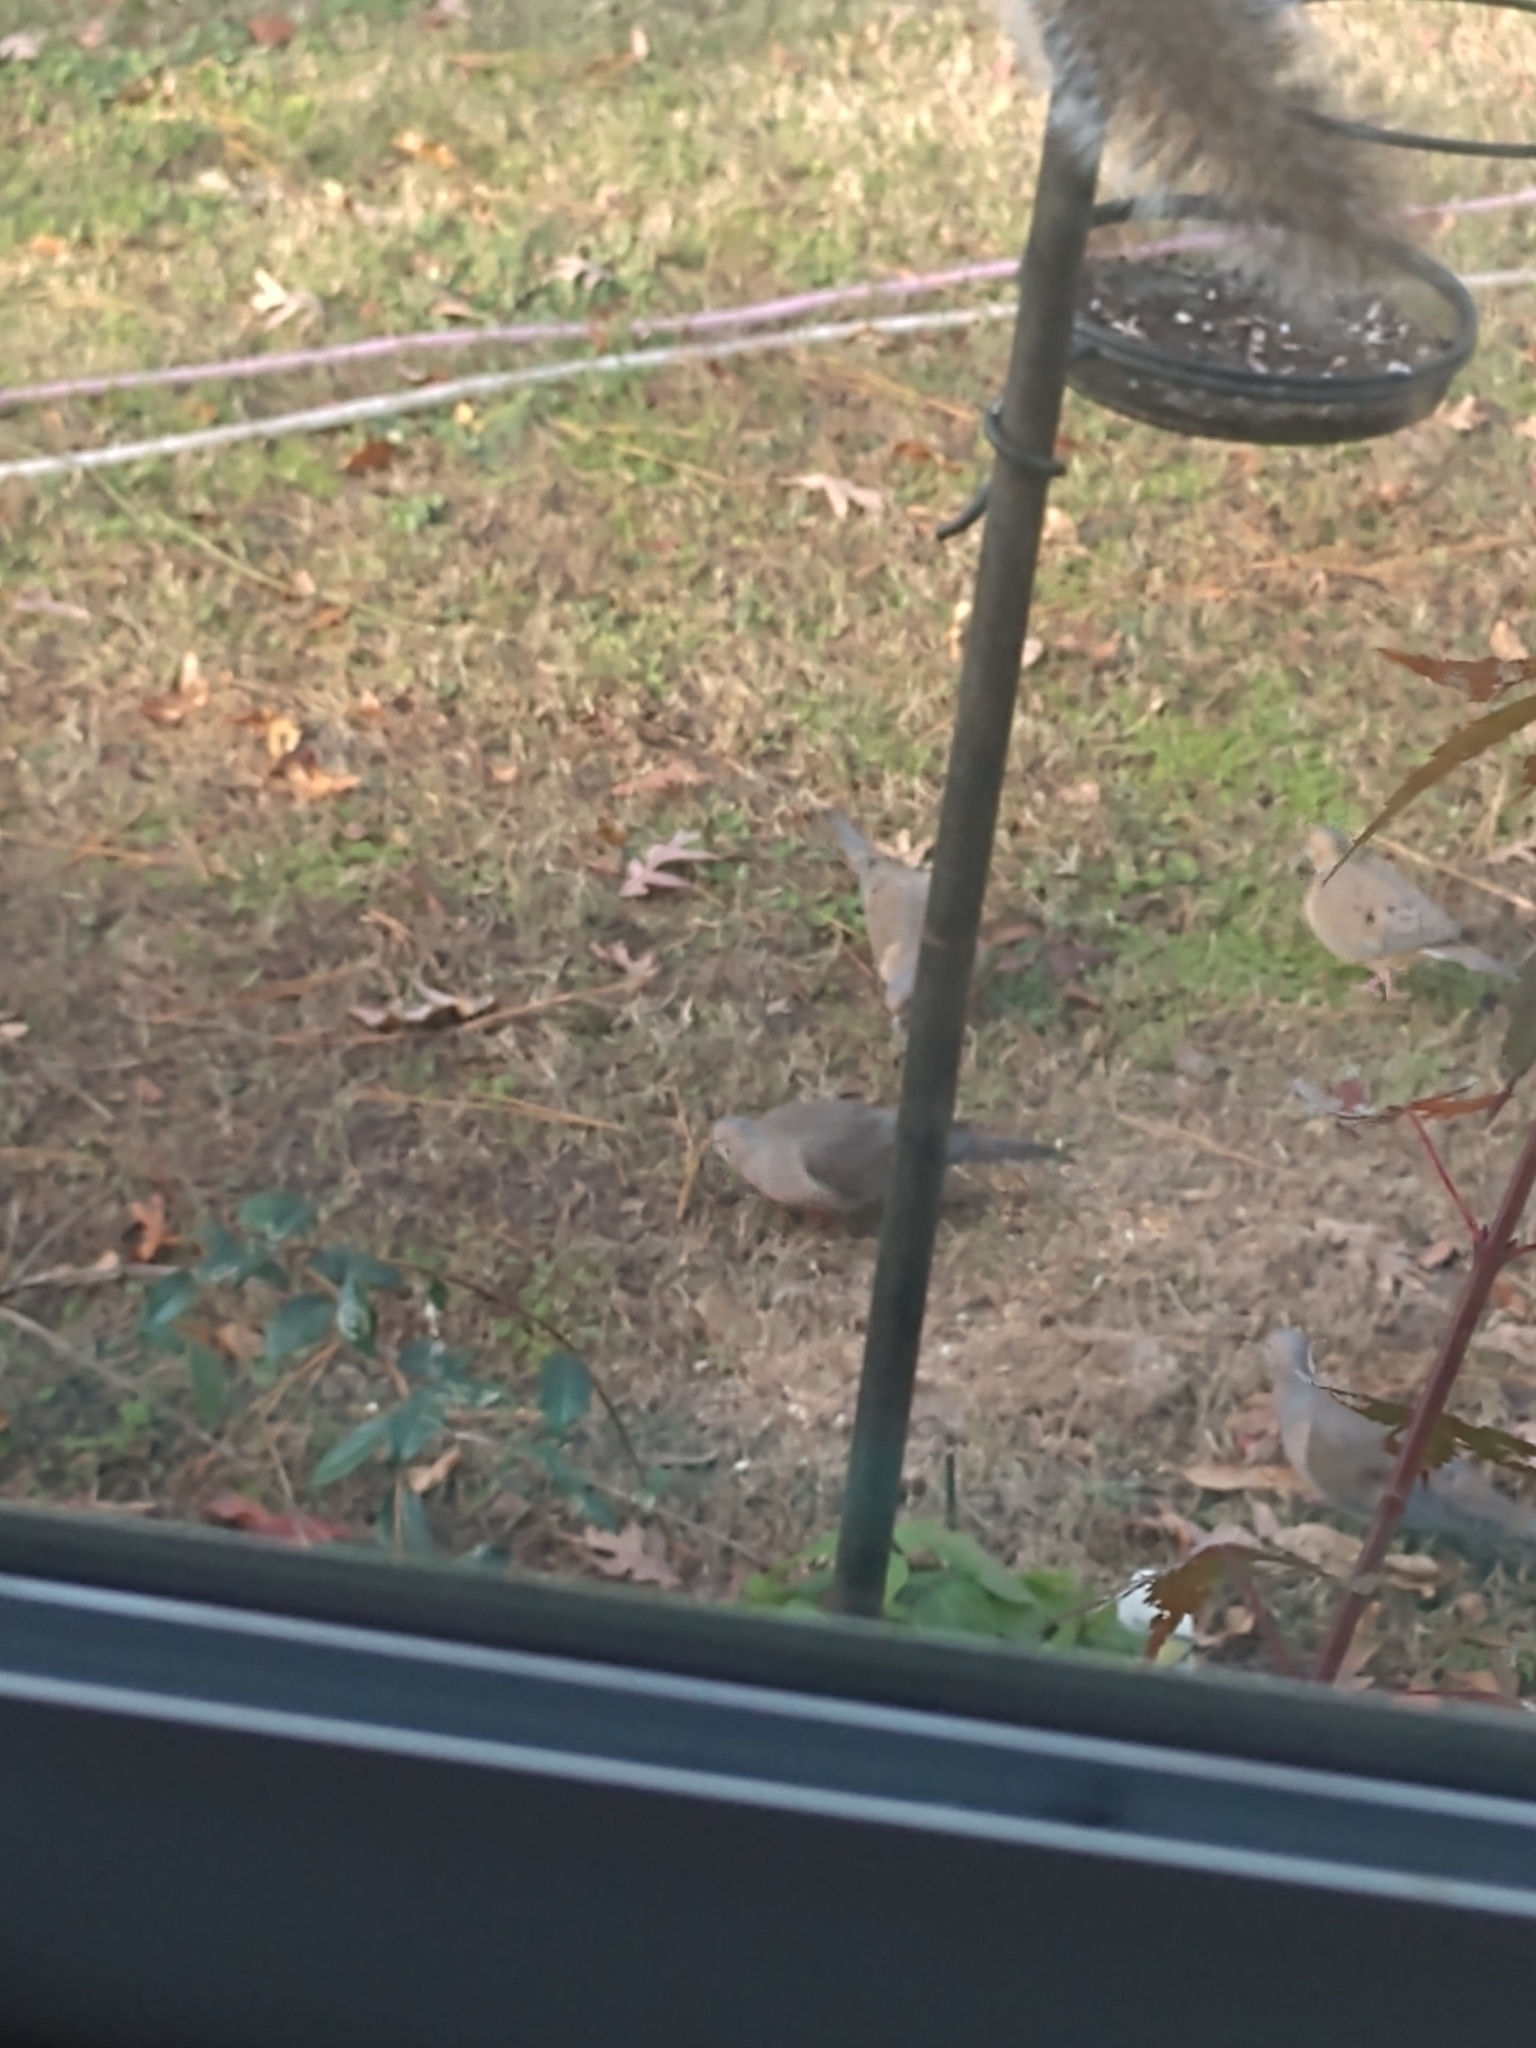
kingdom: Animalia
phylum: Chordata
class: Aves
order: Columbiformes
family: Columbidae
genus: Zenaida
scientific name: Zenaida macroura
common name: Mourning dove
